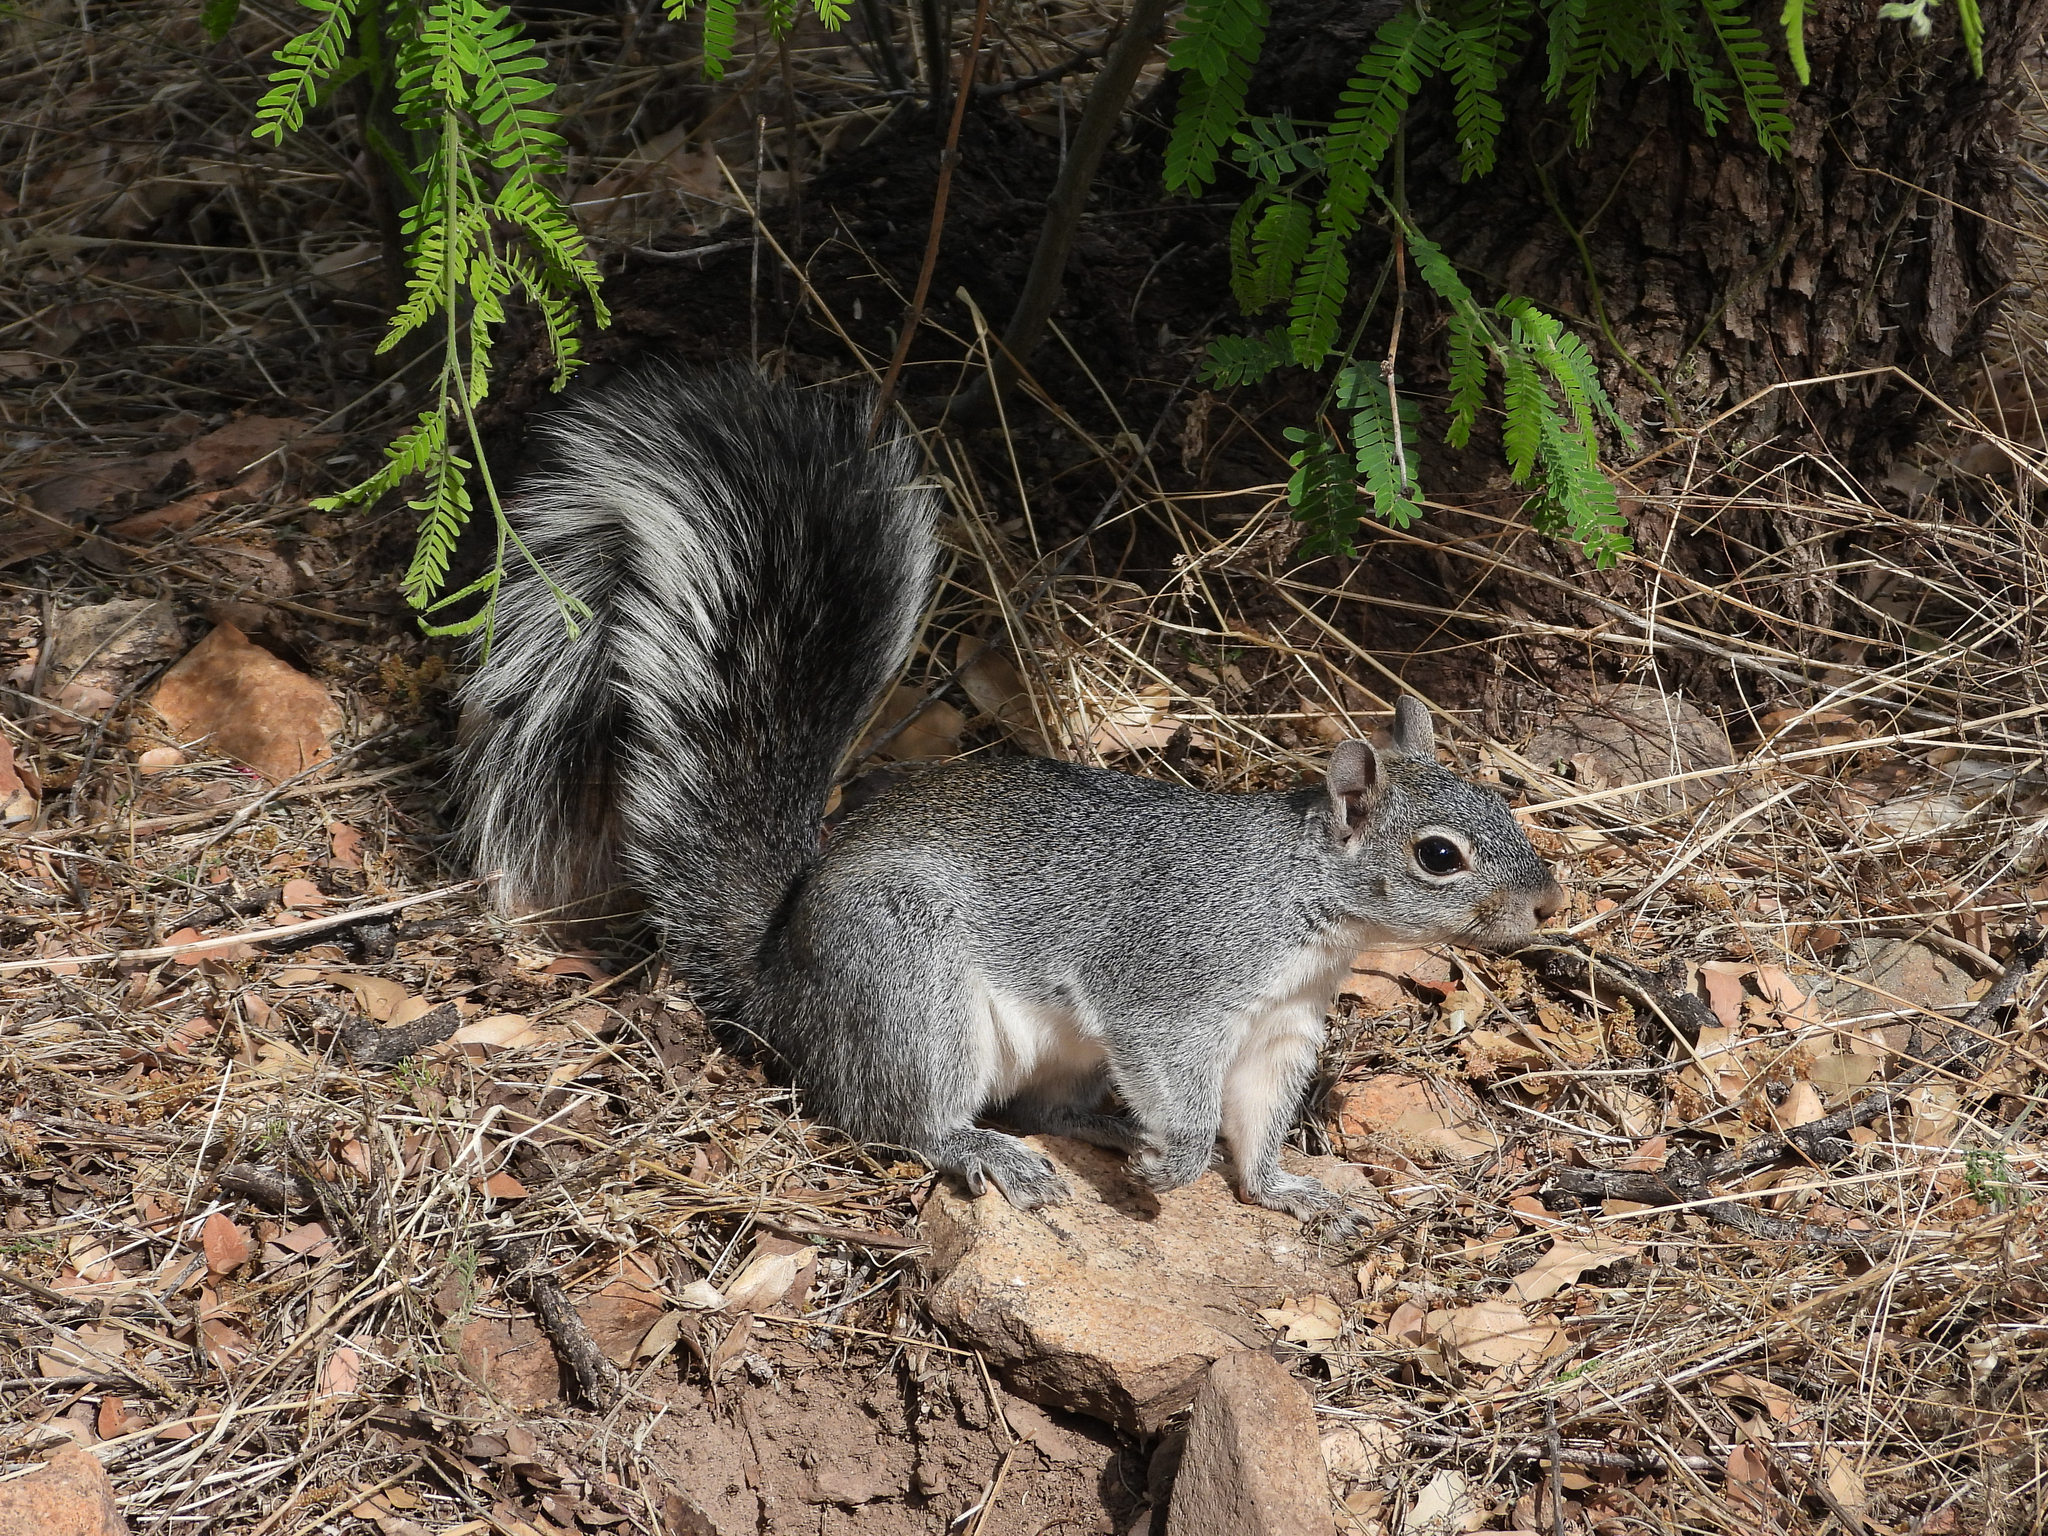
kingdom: Animalia
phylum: Chordata
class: Mammalia
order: Rodentia
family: Sciuridae
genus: Sciurus
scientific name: Sciurus arizonensis
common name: Arizona gray squirrel
